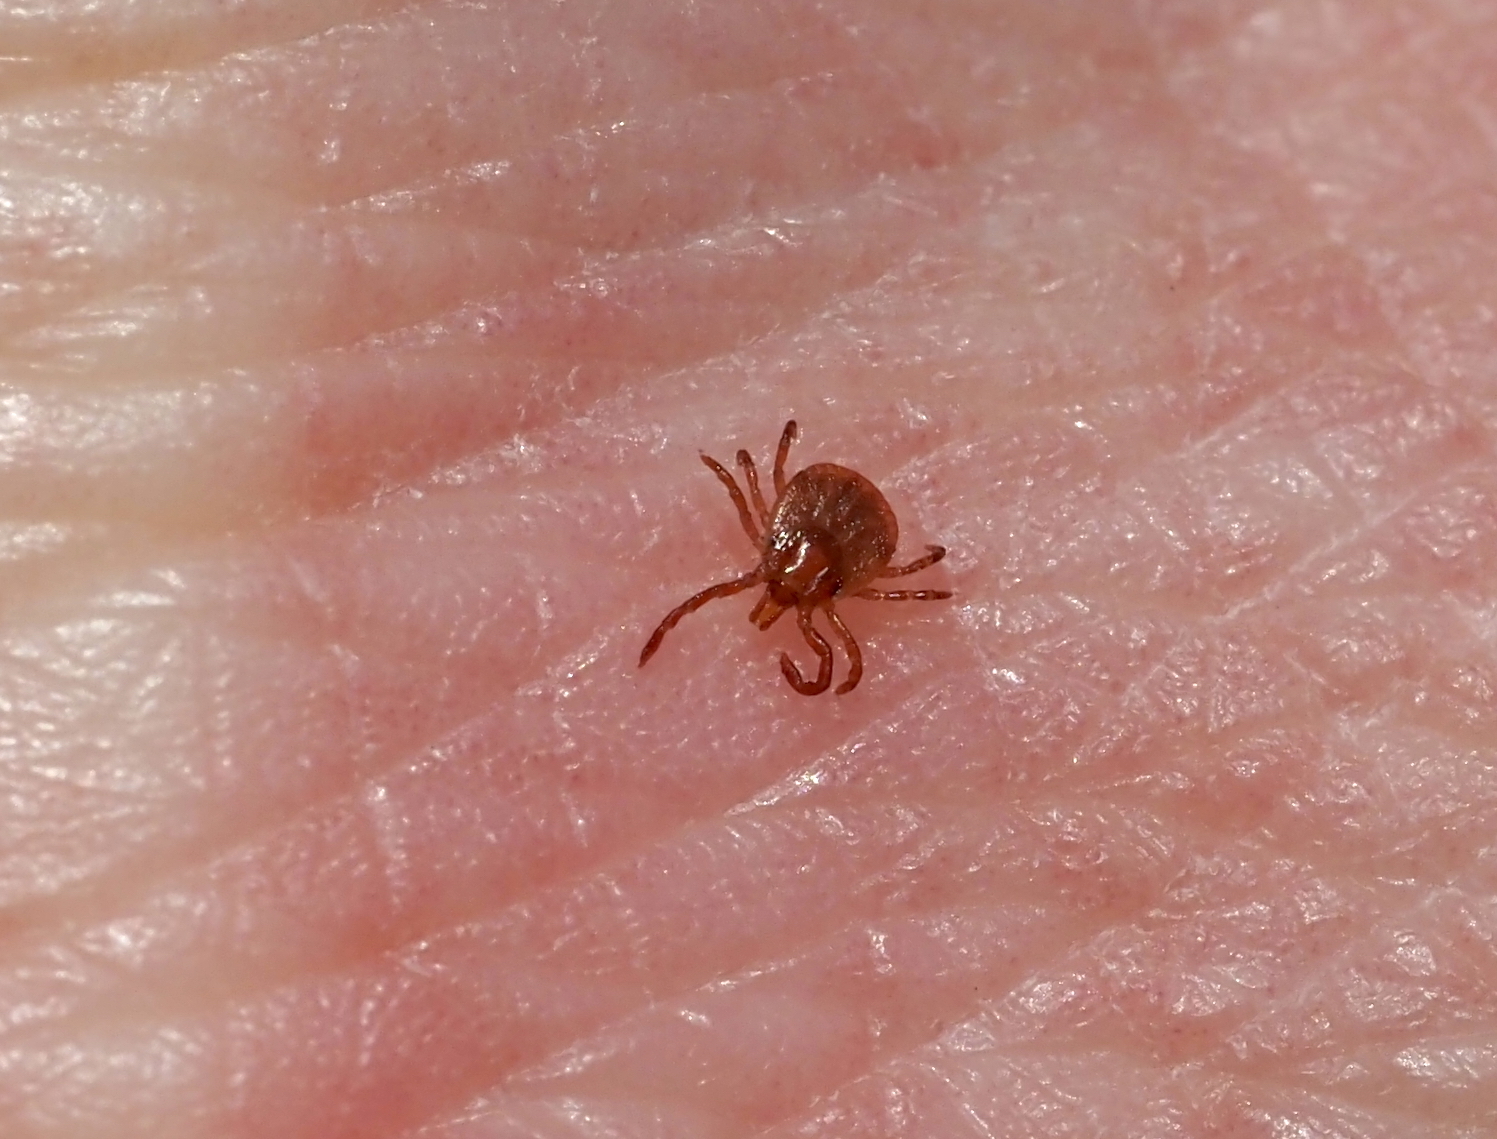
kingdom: Animalia
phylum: Arthropoda
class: Arachnida
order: Ixodida
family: Ixodidae
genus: Amblyomma
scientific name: Amblyomma americanum
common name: Lone star tick
